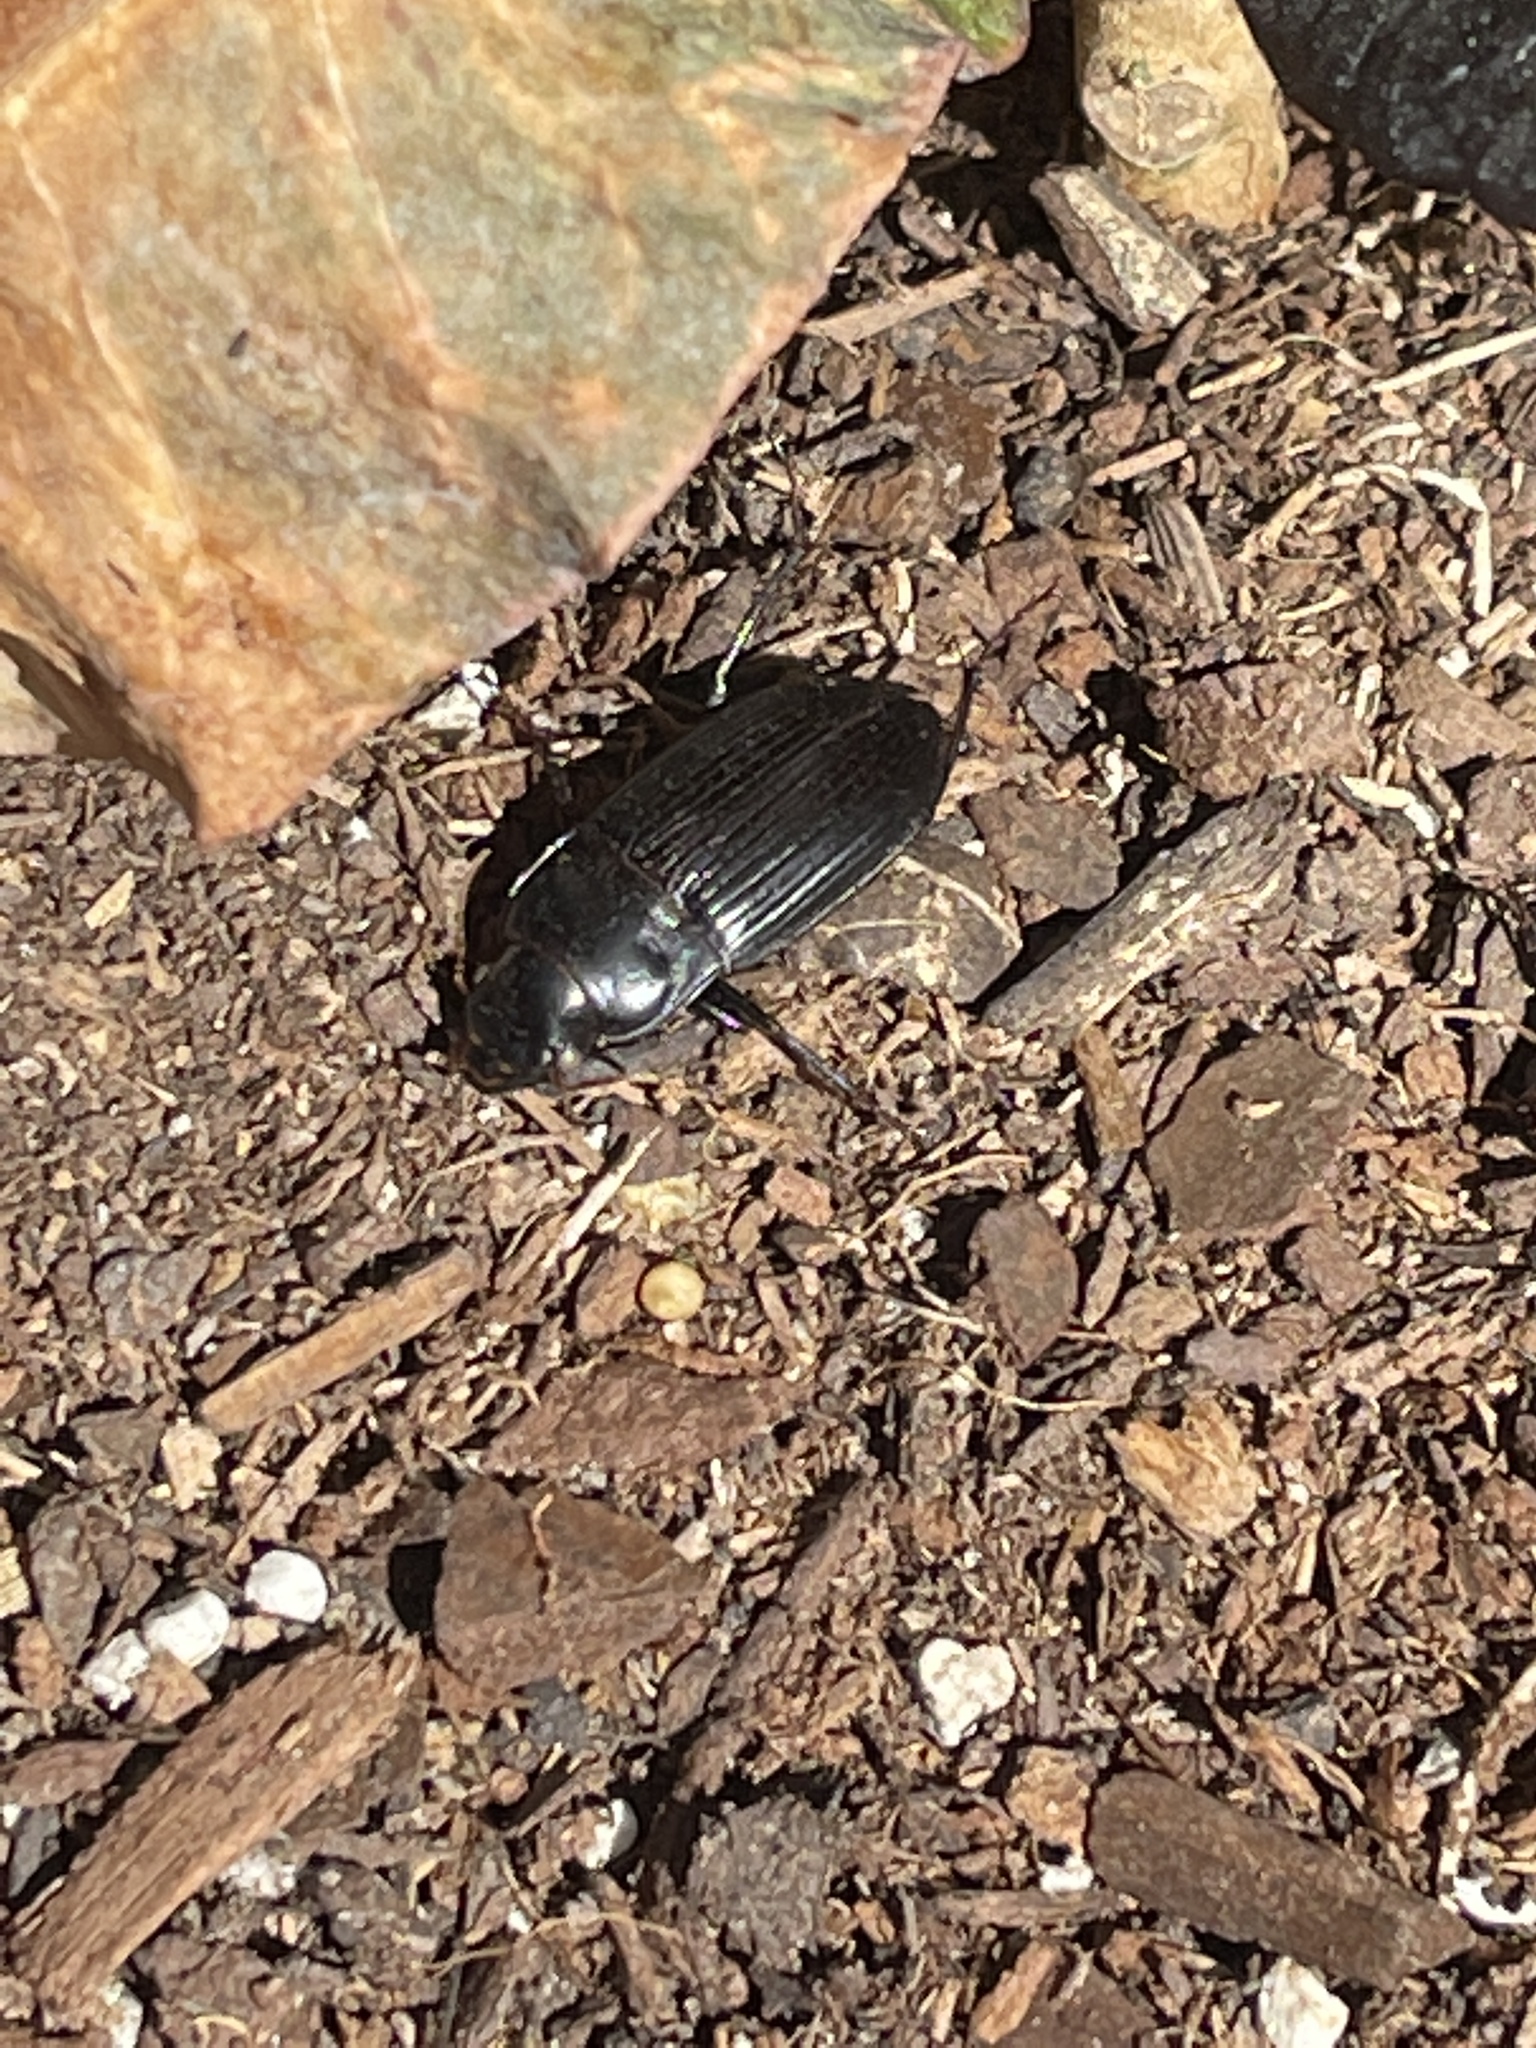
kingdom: Animalia
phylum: Arthropoda
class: Insecta
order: Coleoptera
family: Carabidae
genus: Harpalus
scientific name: Harpalus caliginosus
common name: Murky ground beetle
